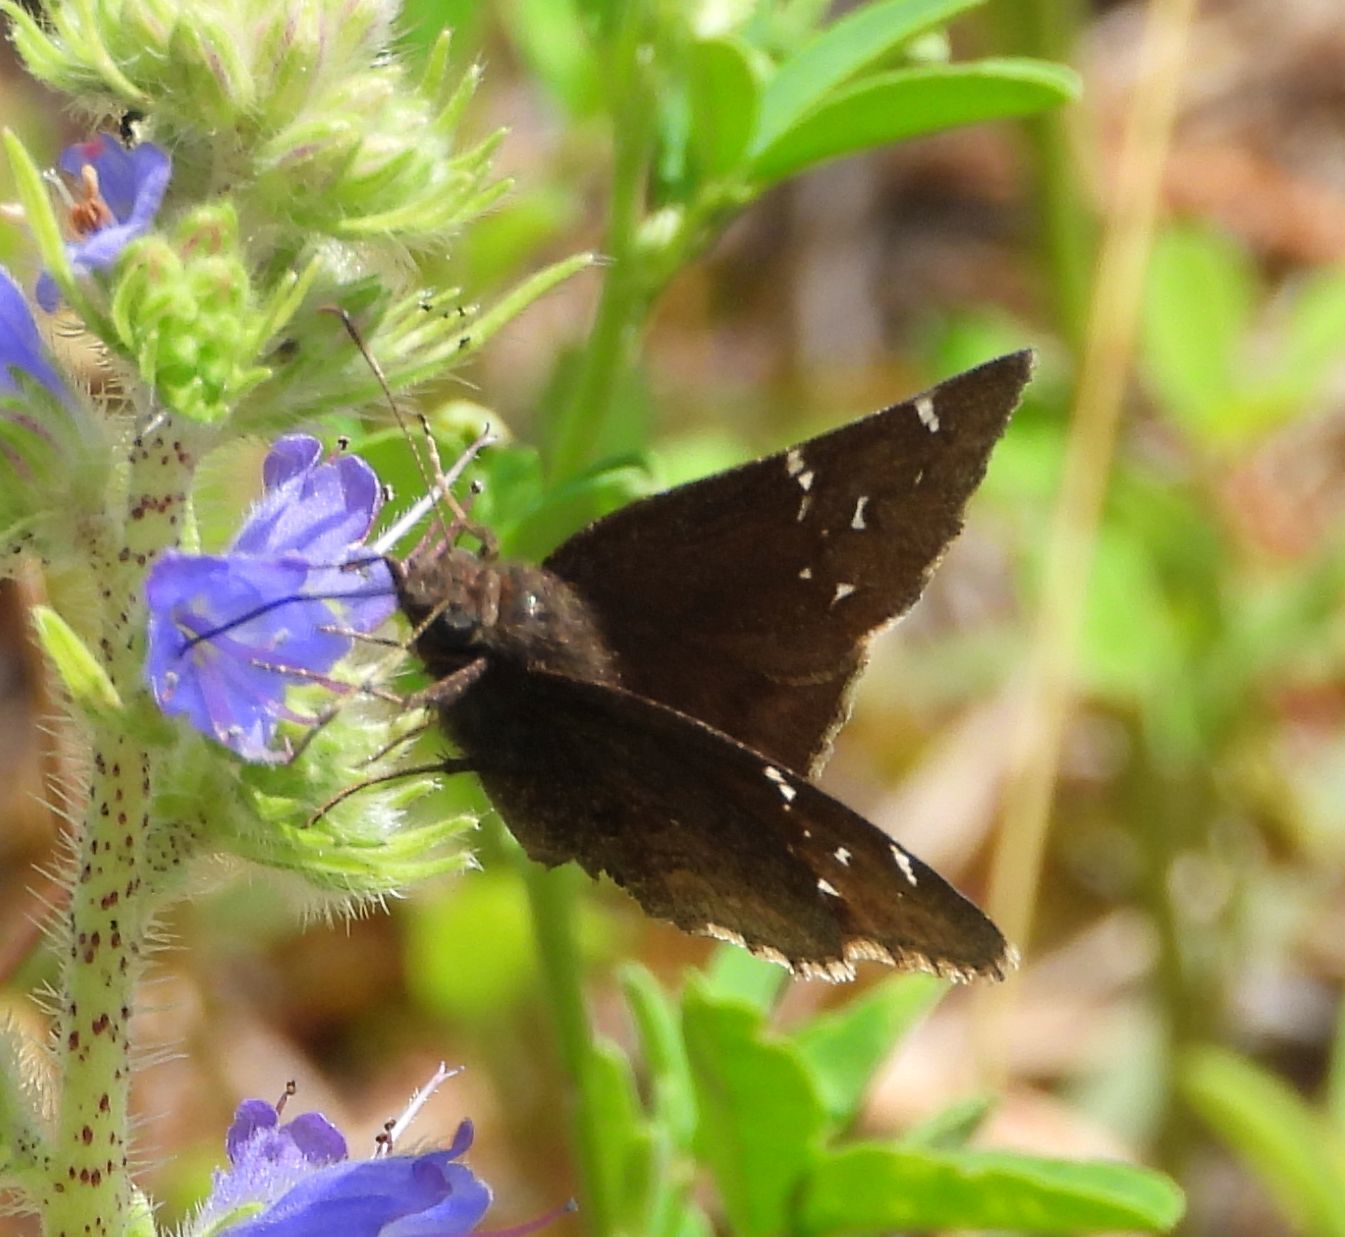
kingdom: Animalia
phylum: Arthropoda
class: Insecta
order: Lepidoptera
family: Hesperiidae
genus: Thorybes
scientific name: Thorybes pylades
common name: Northern cloudywing
